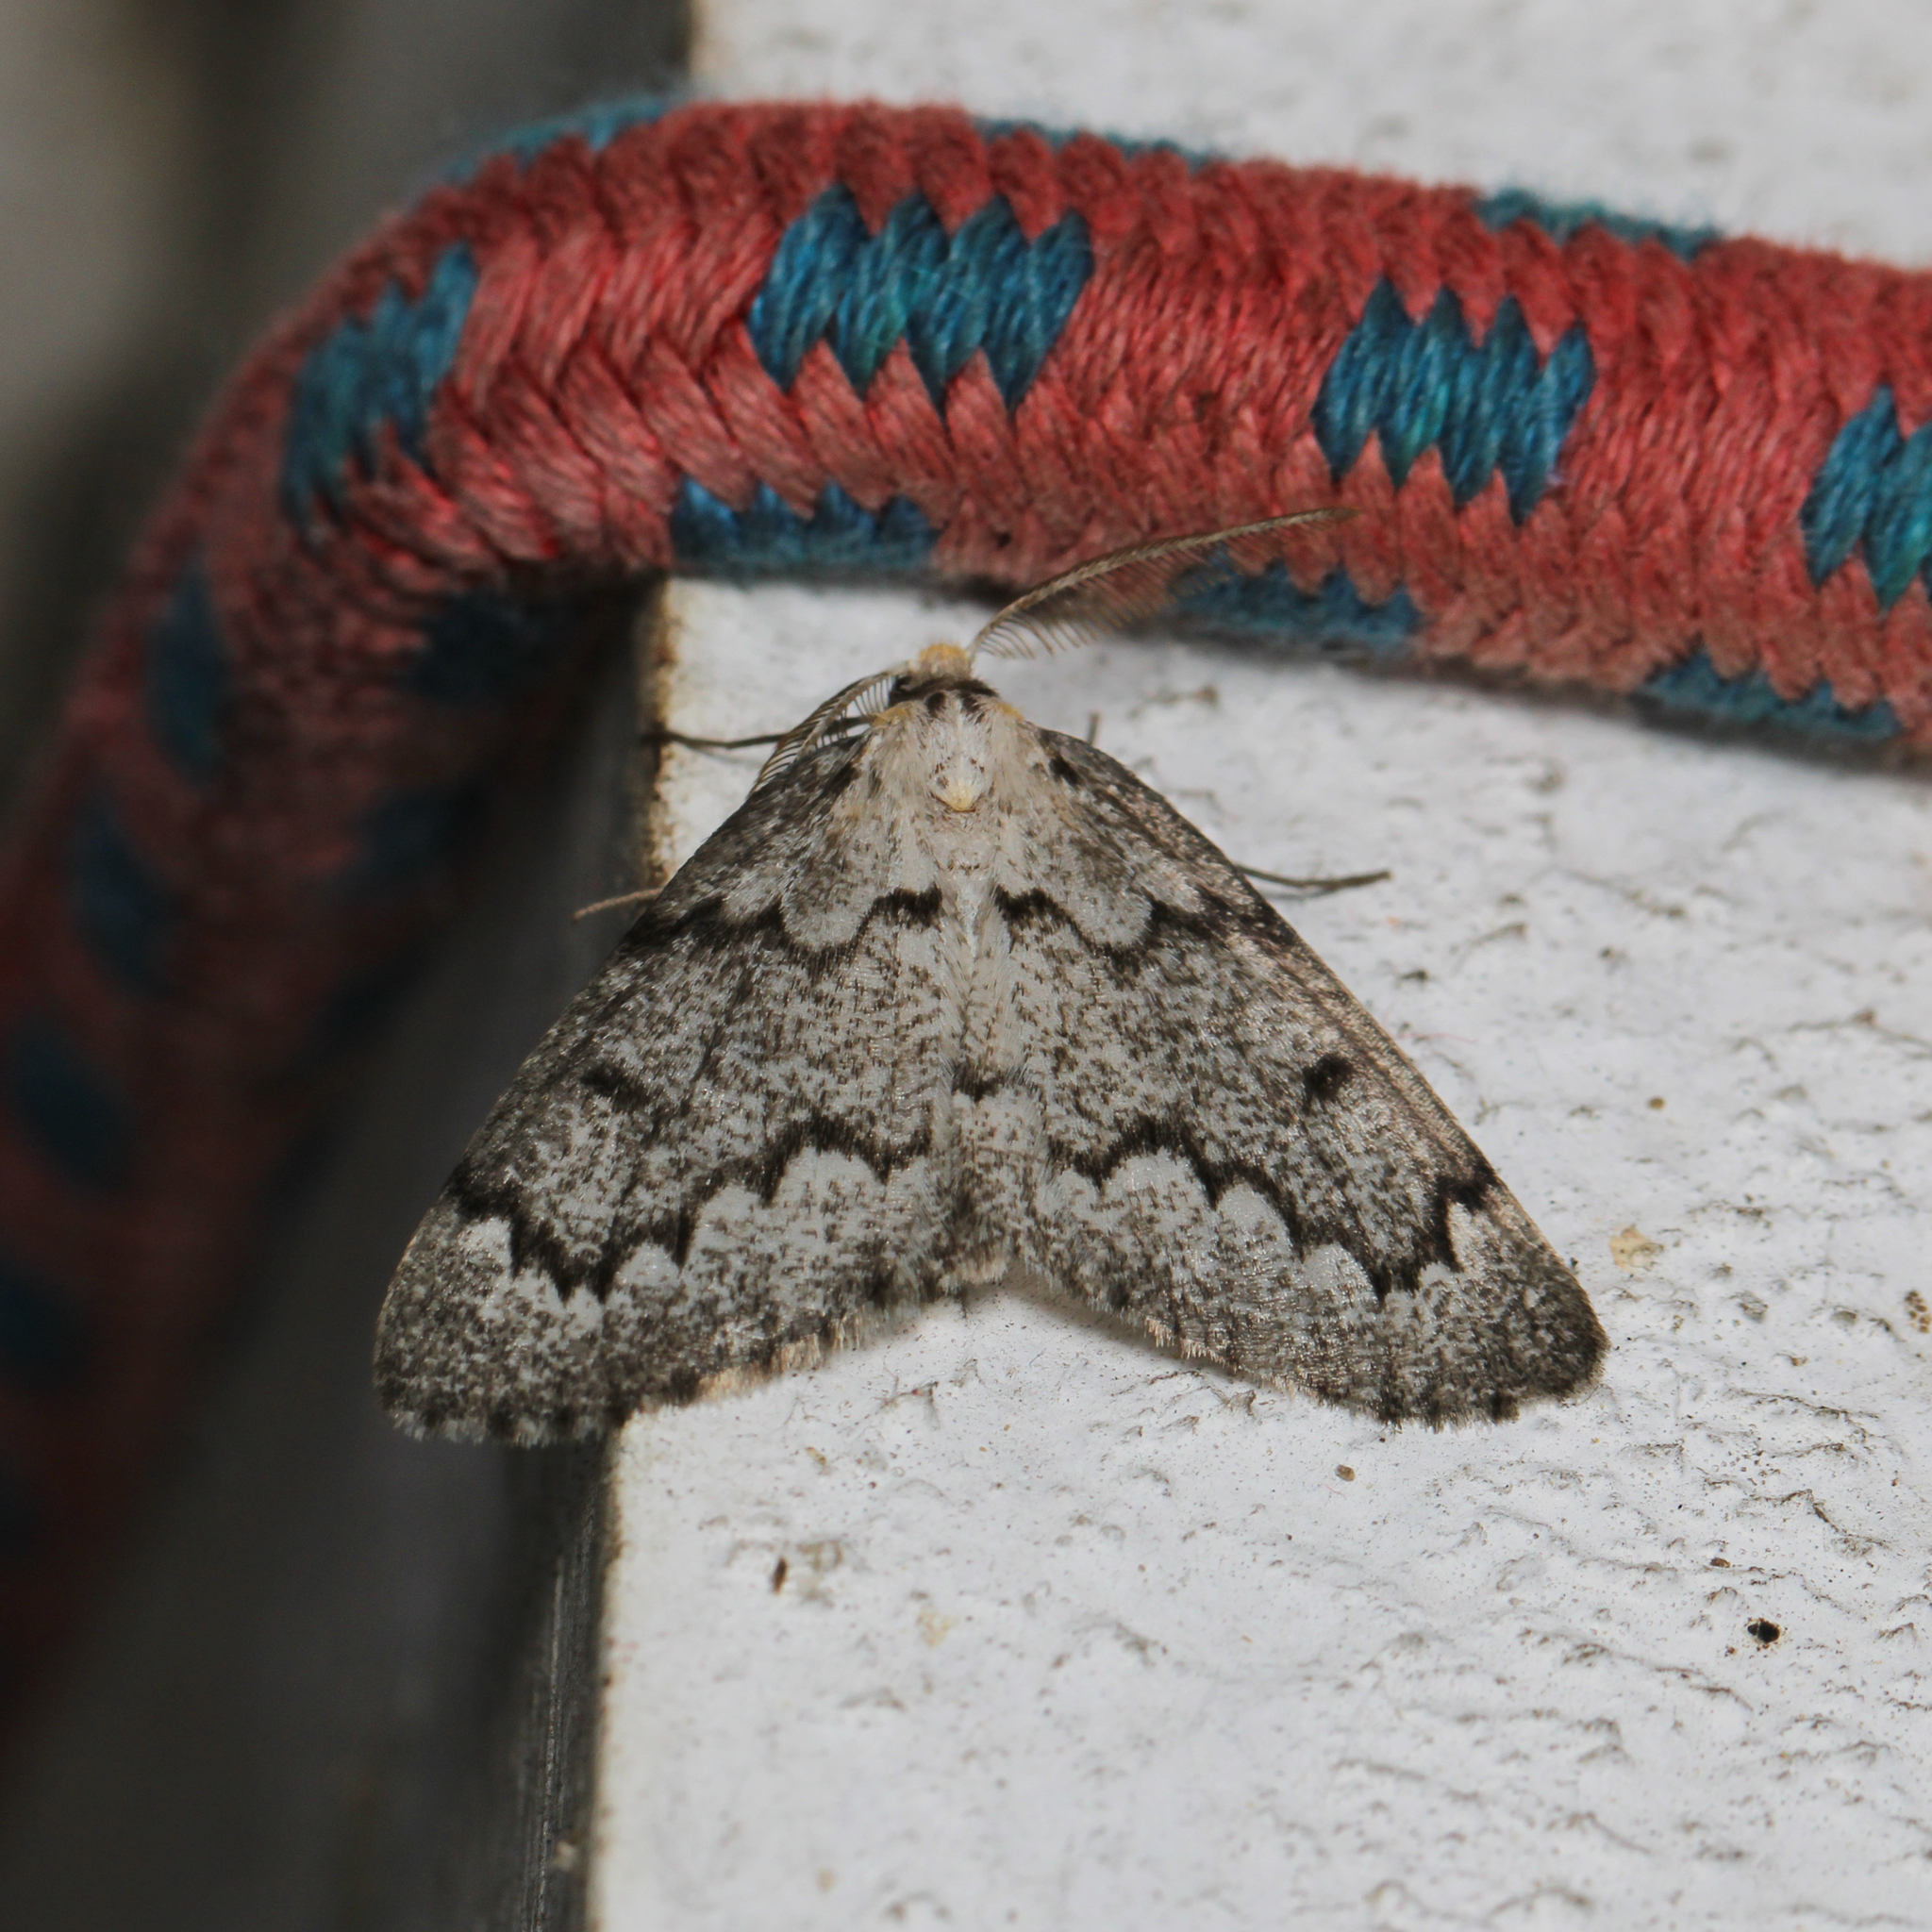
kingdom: Animalia
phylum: Arthropoda
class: Insecta
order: Lepidoptera
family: Geometridae
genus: Nepytia
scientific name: Nepytia canosaria
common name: False hemlock looper
